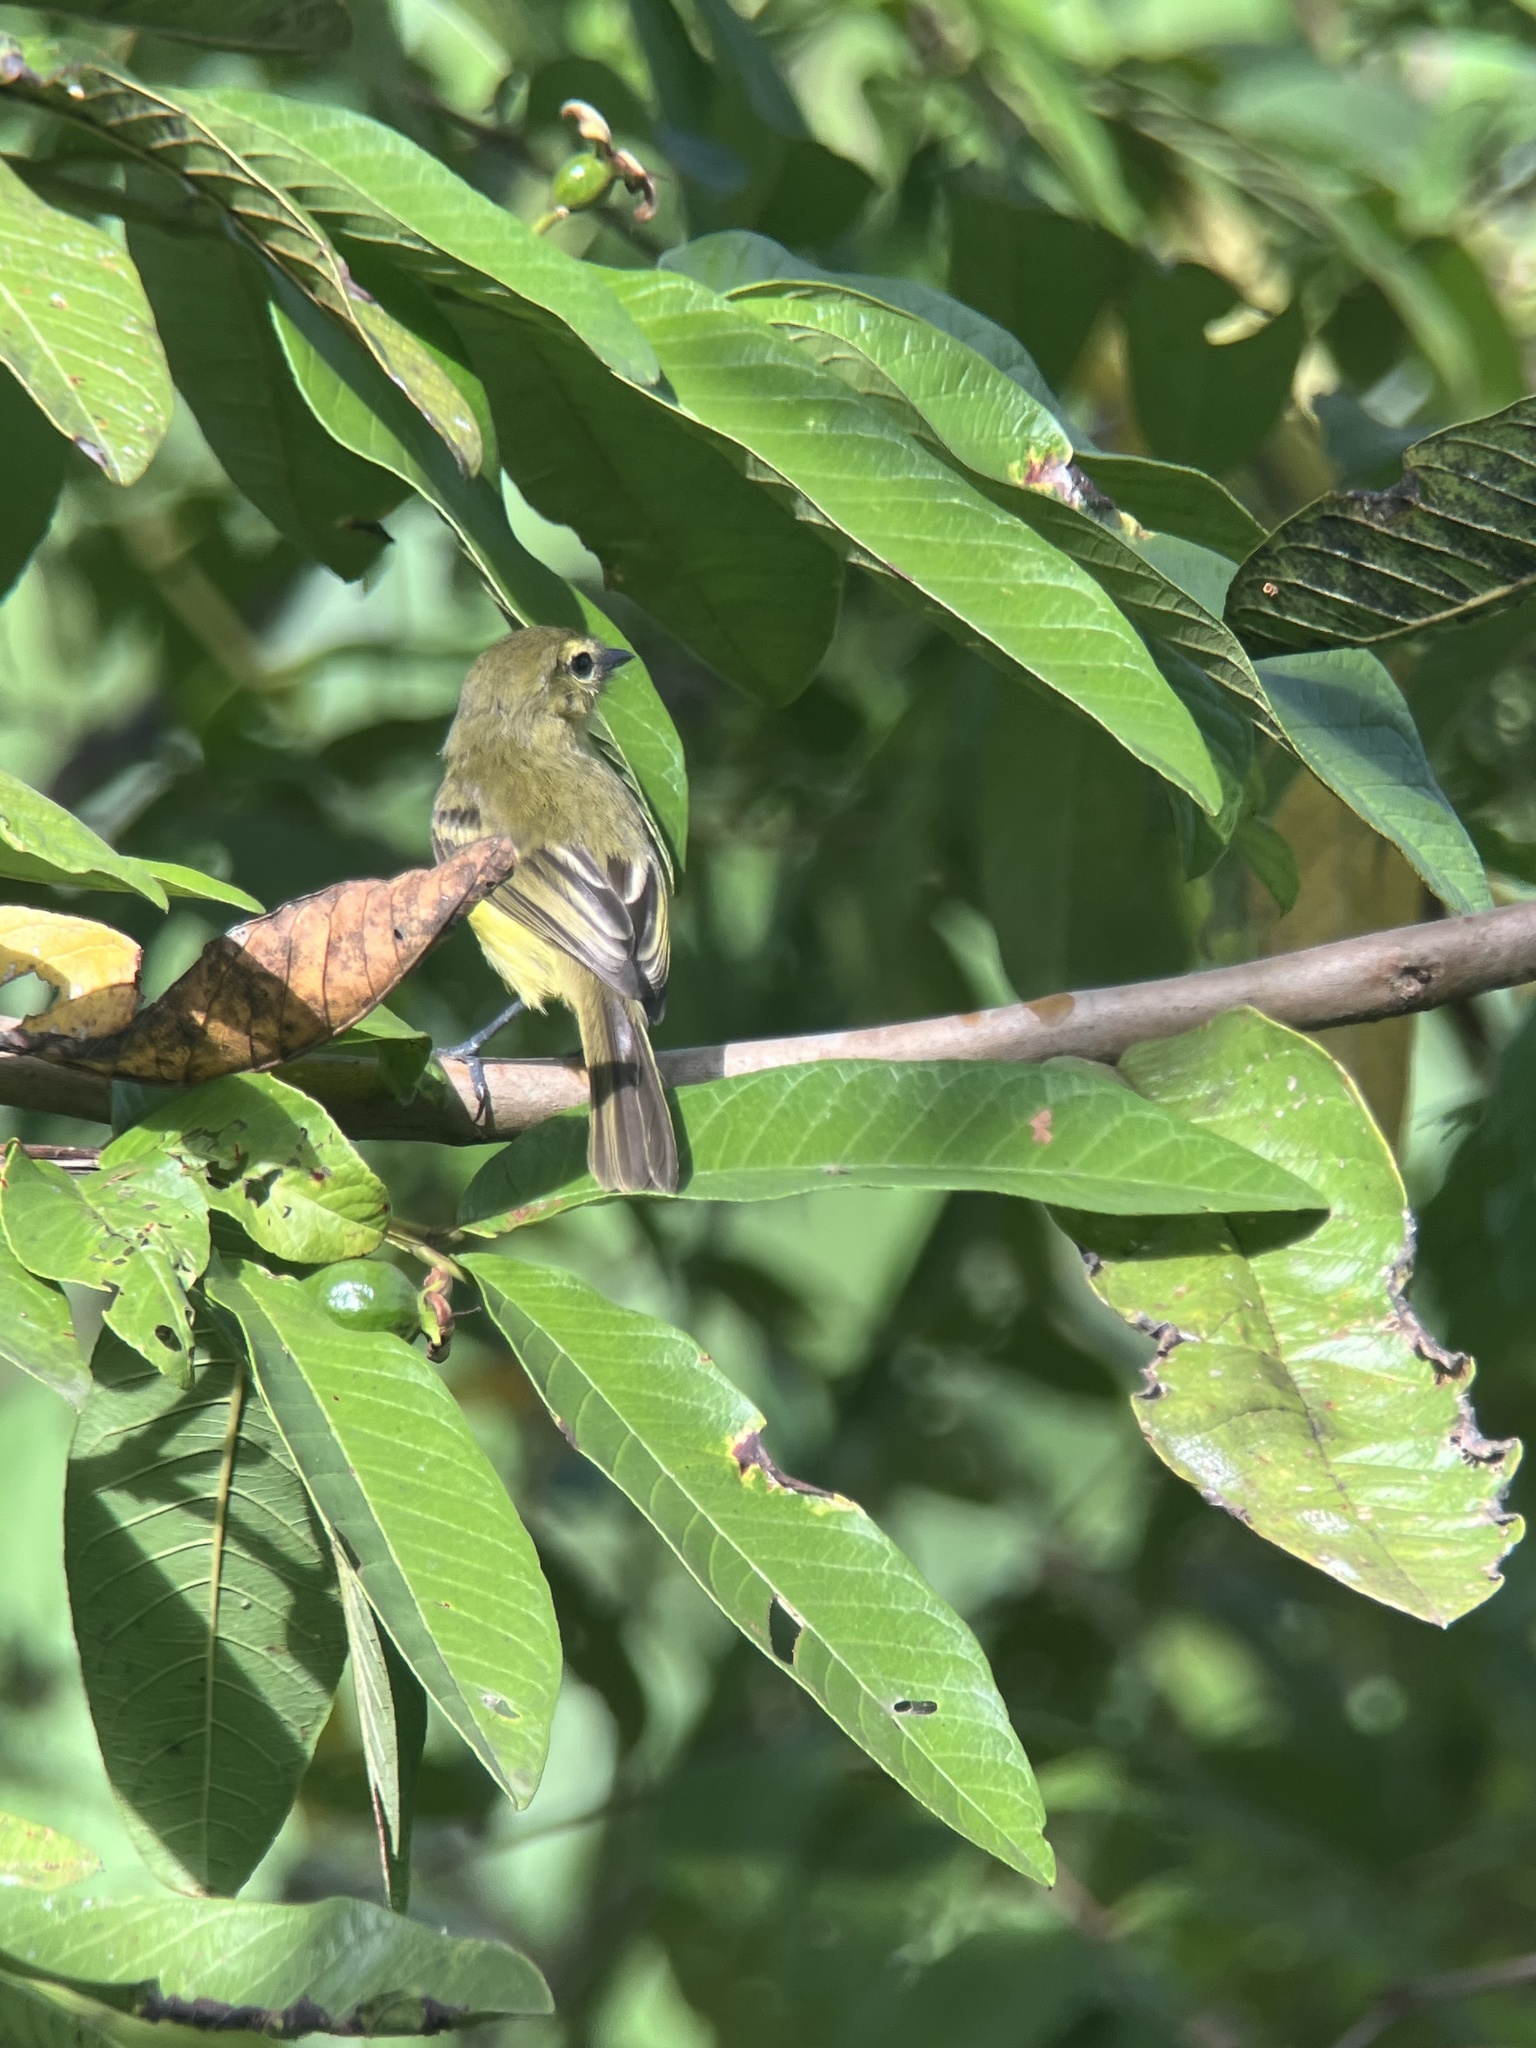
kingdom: Animalia
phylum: Chordata
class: Aves
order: Passeriformes
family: Tyrannidae
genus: Capsiempis
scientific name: Capsiempis flaveola
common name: Yellow tyrannulet
